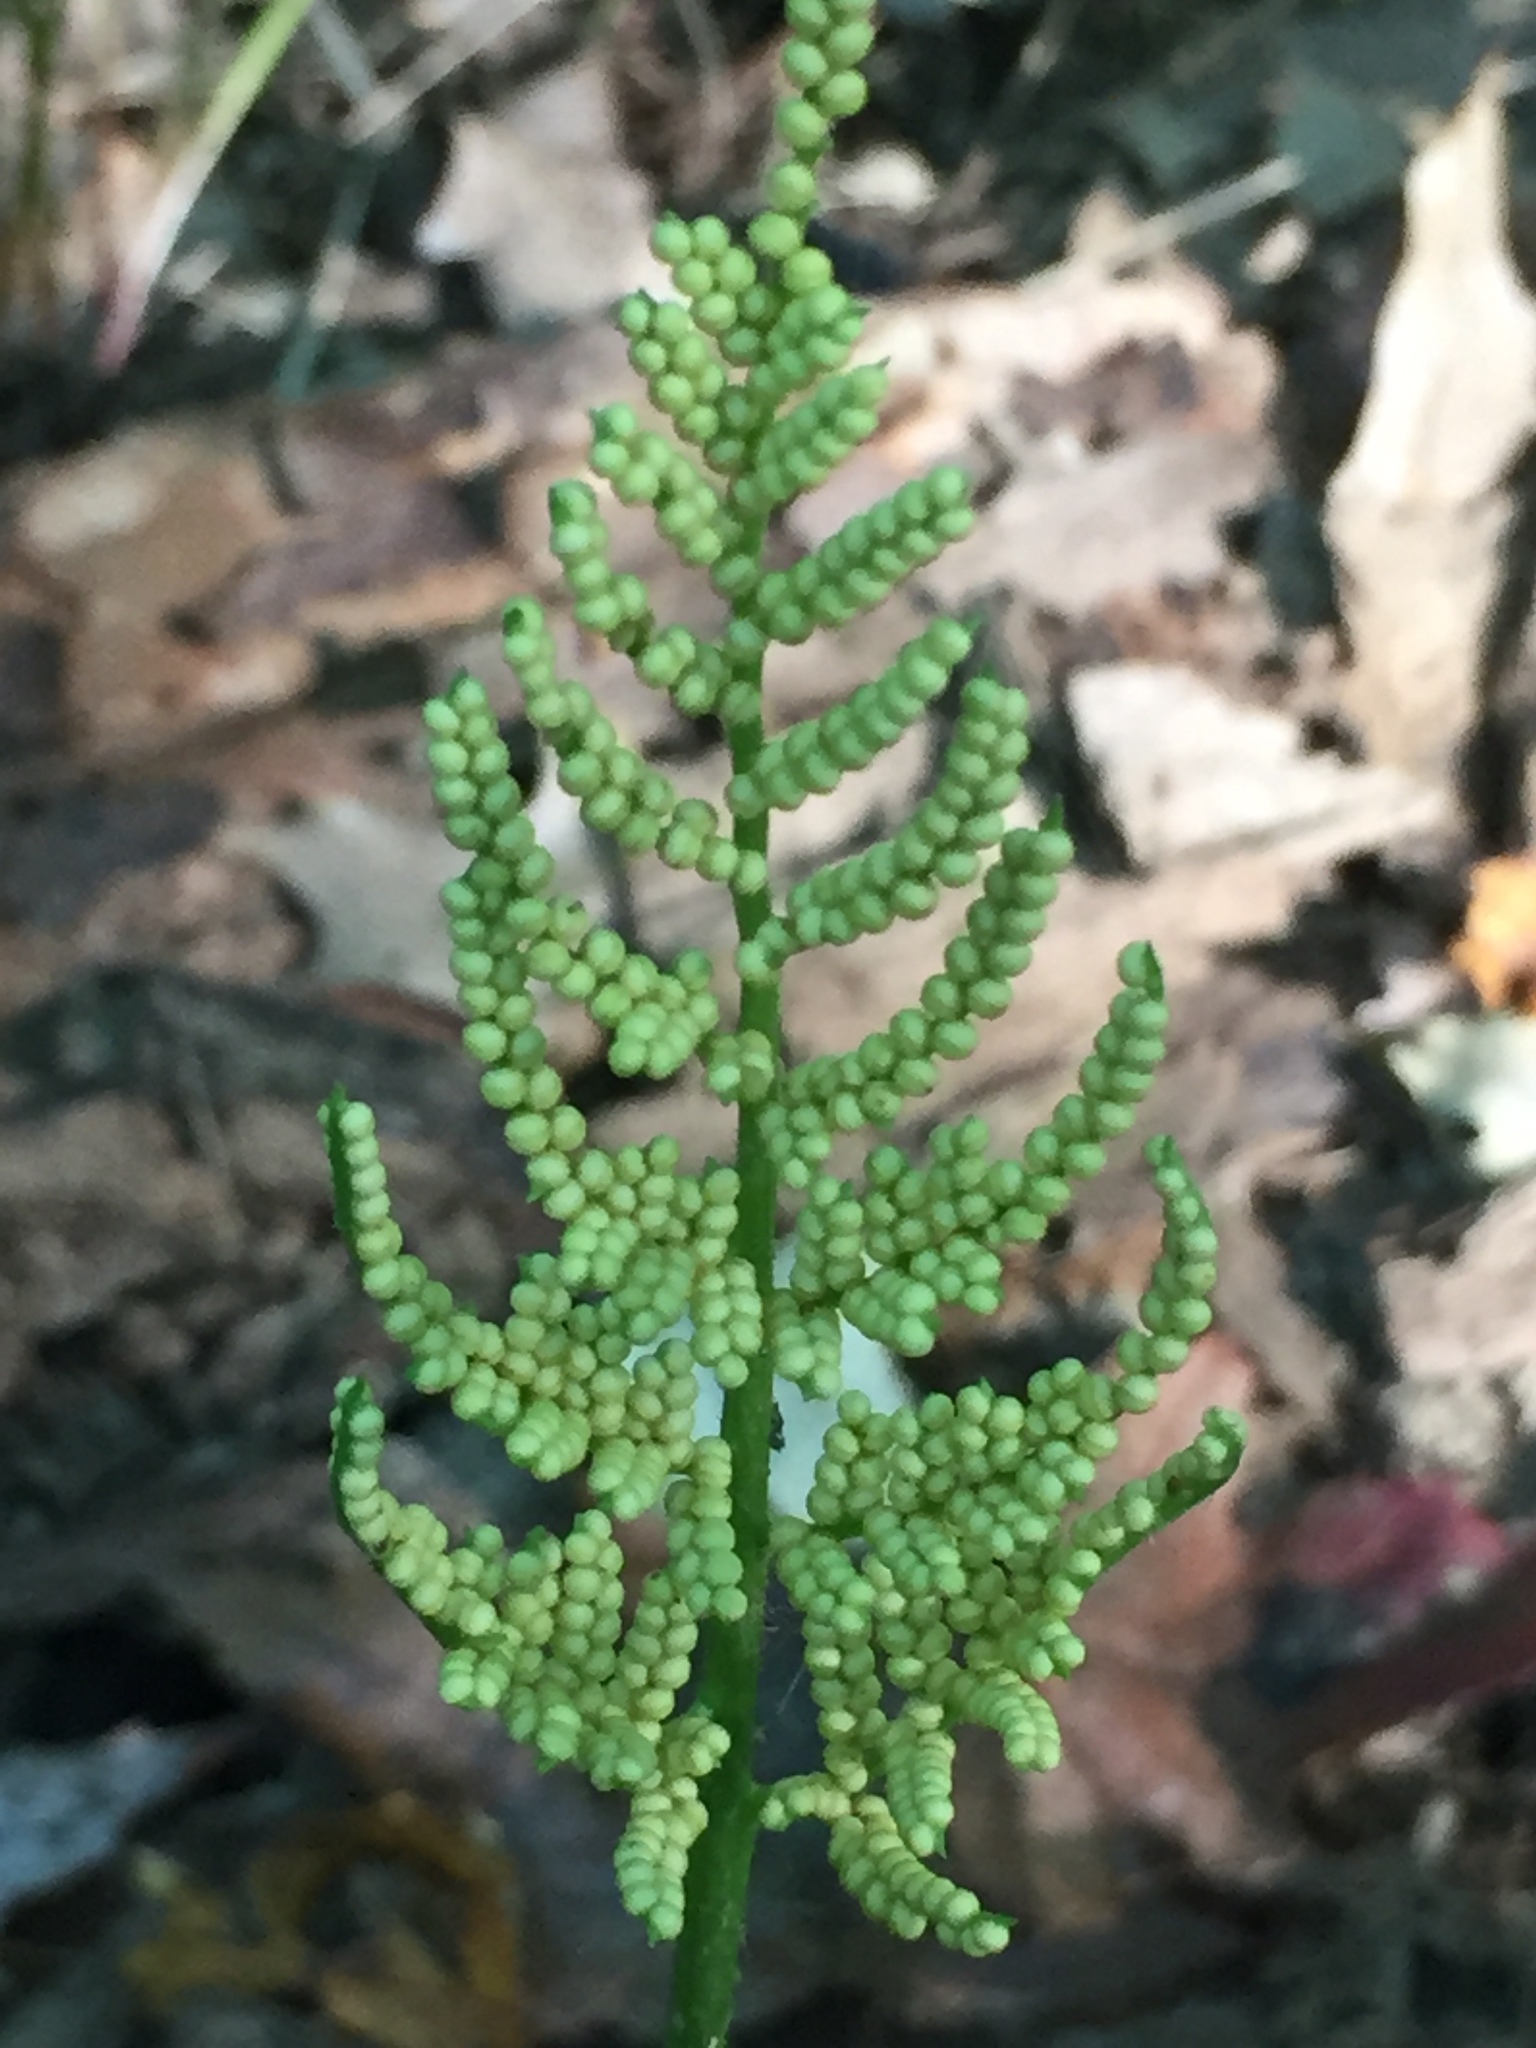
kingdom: Plantae
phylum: Tracheophyta
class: Polypodiopsida
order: Ophioglossales
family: Ophioglossaceae
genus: Sceptridium
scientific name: Sceptridium dissectum
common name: Cut-leaved grapefern
